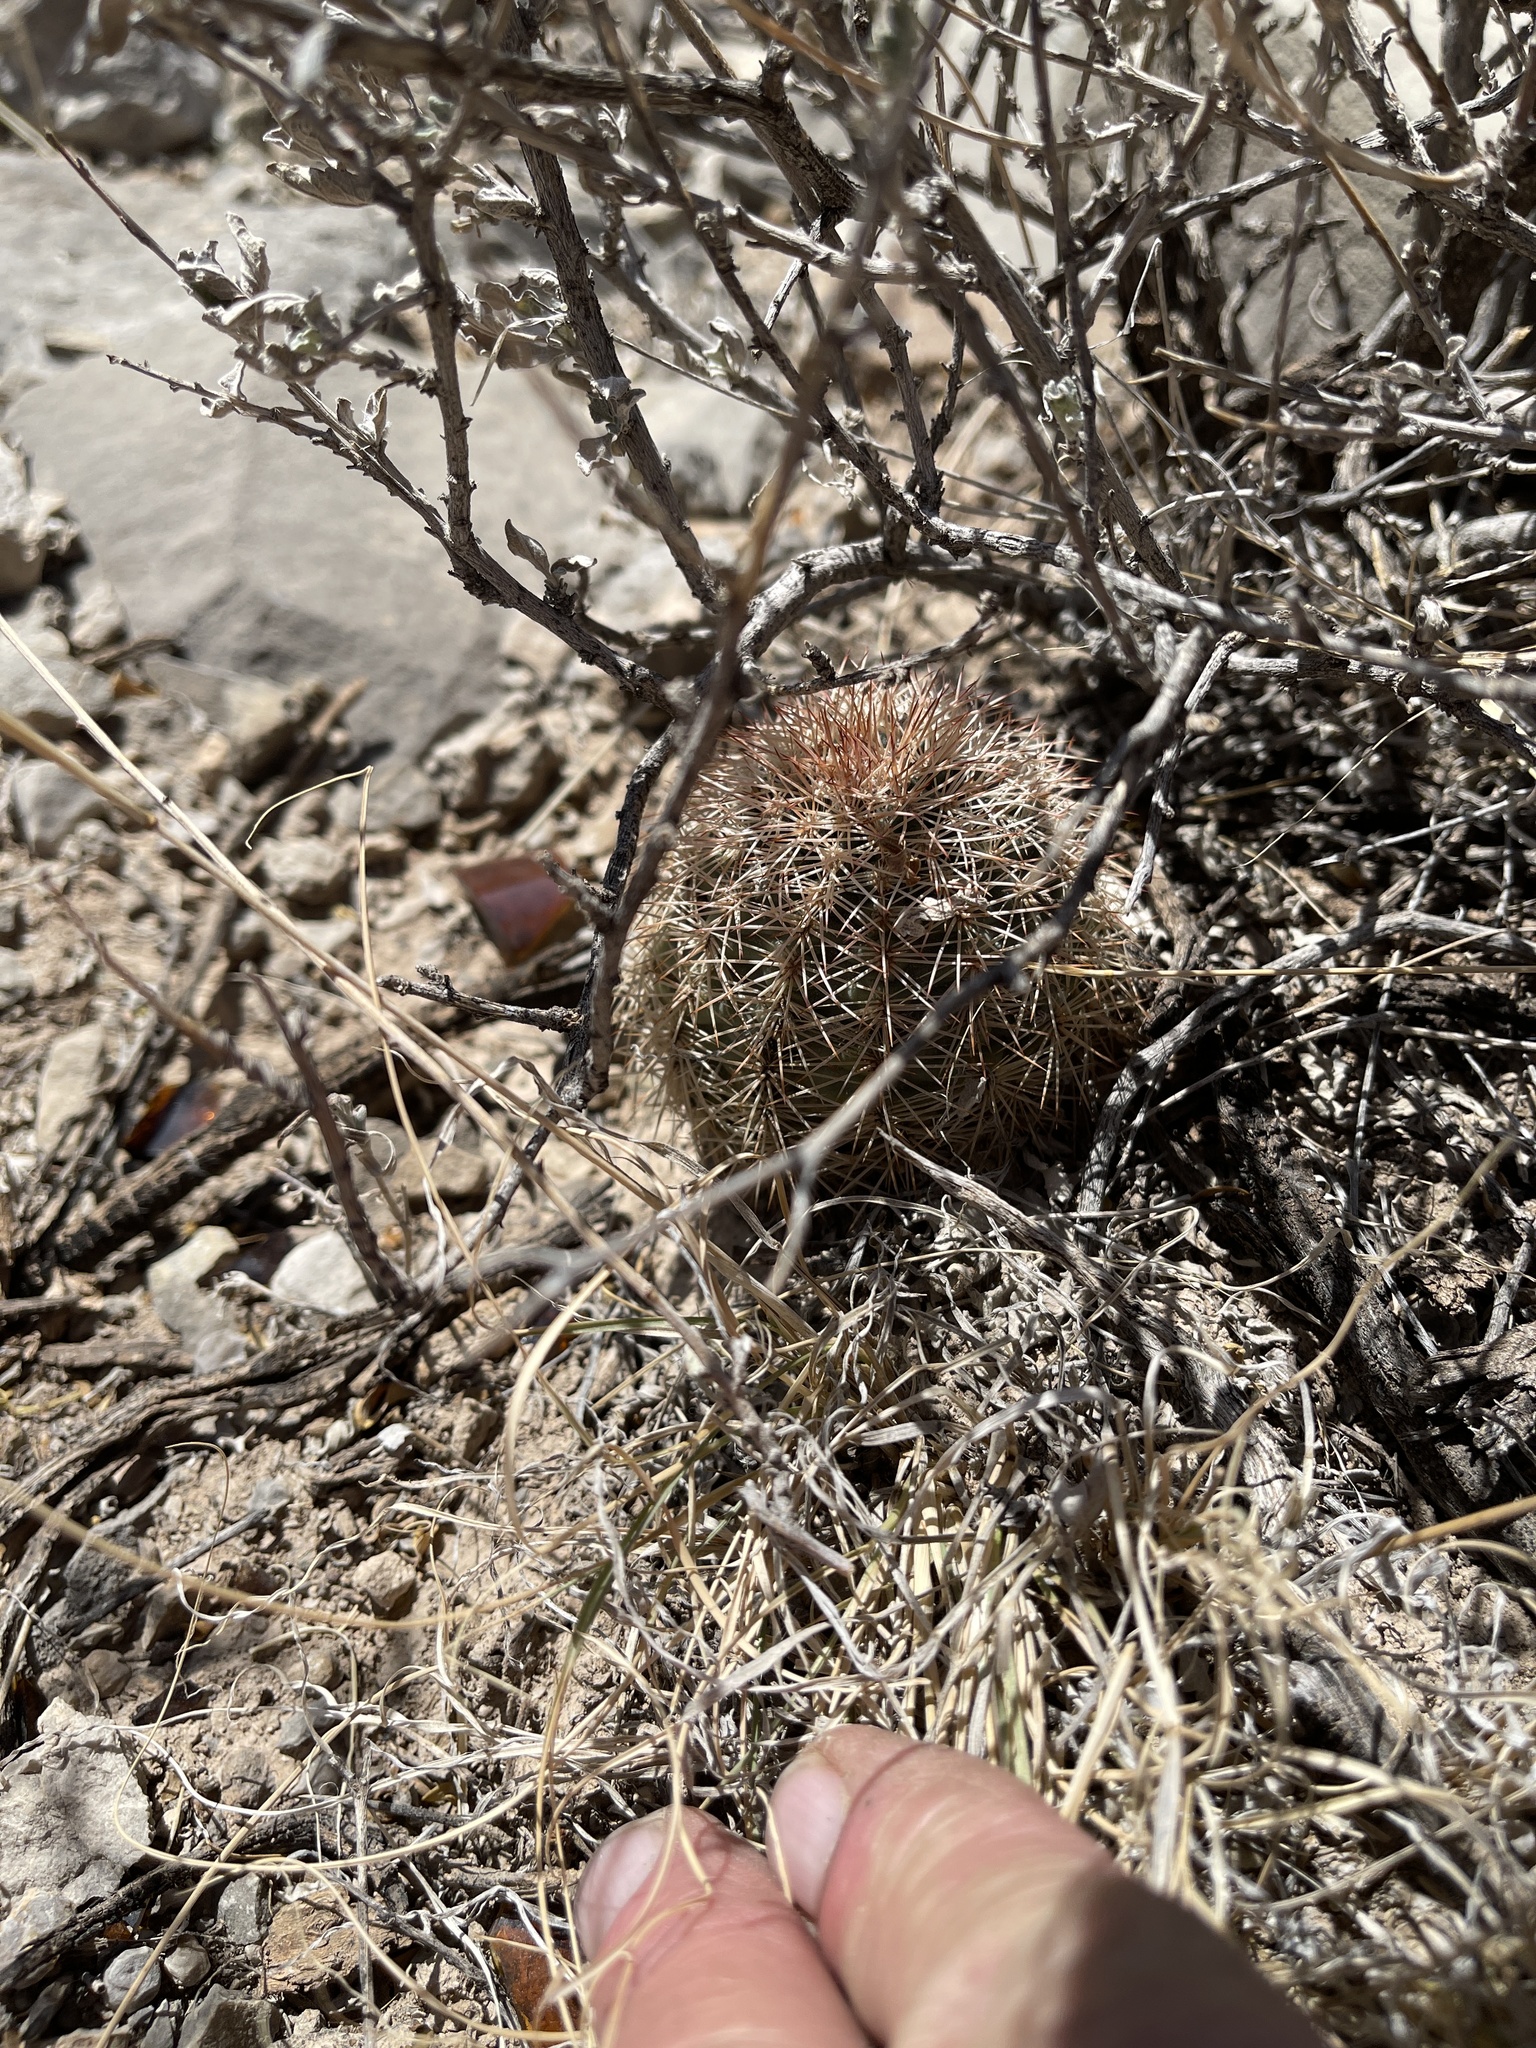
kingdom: Plantae
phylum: Tracheophyta
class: Magnoliopsida
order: Caryophyllales
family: Cactaceae
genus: Echinocereus
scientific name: Echinocereus roetteri
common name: Lloyd's hedgehog cactus
